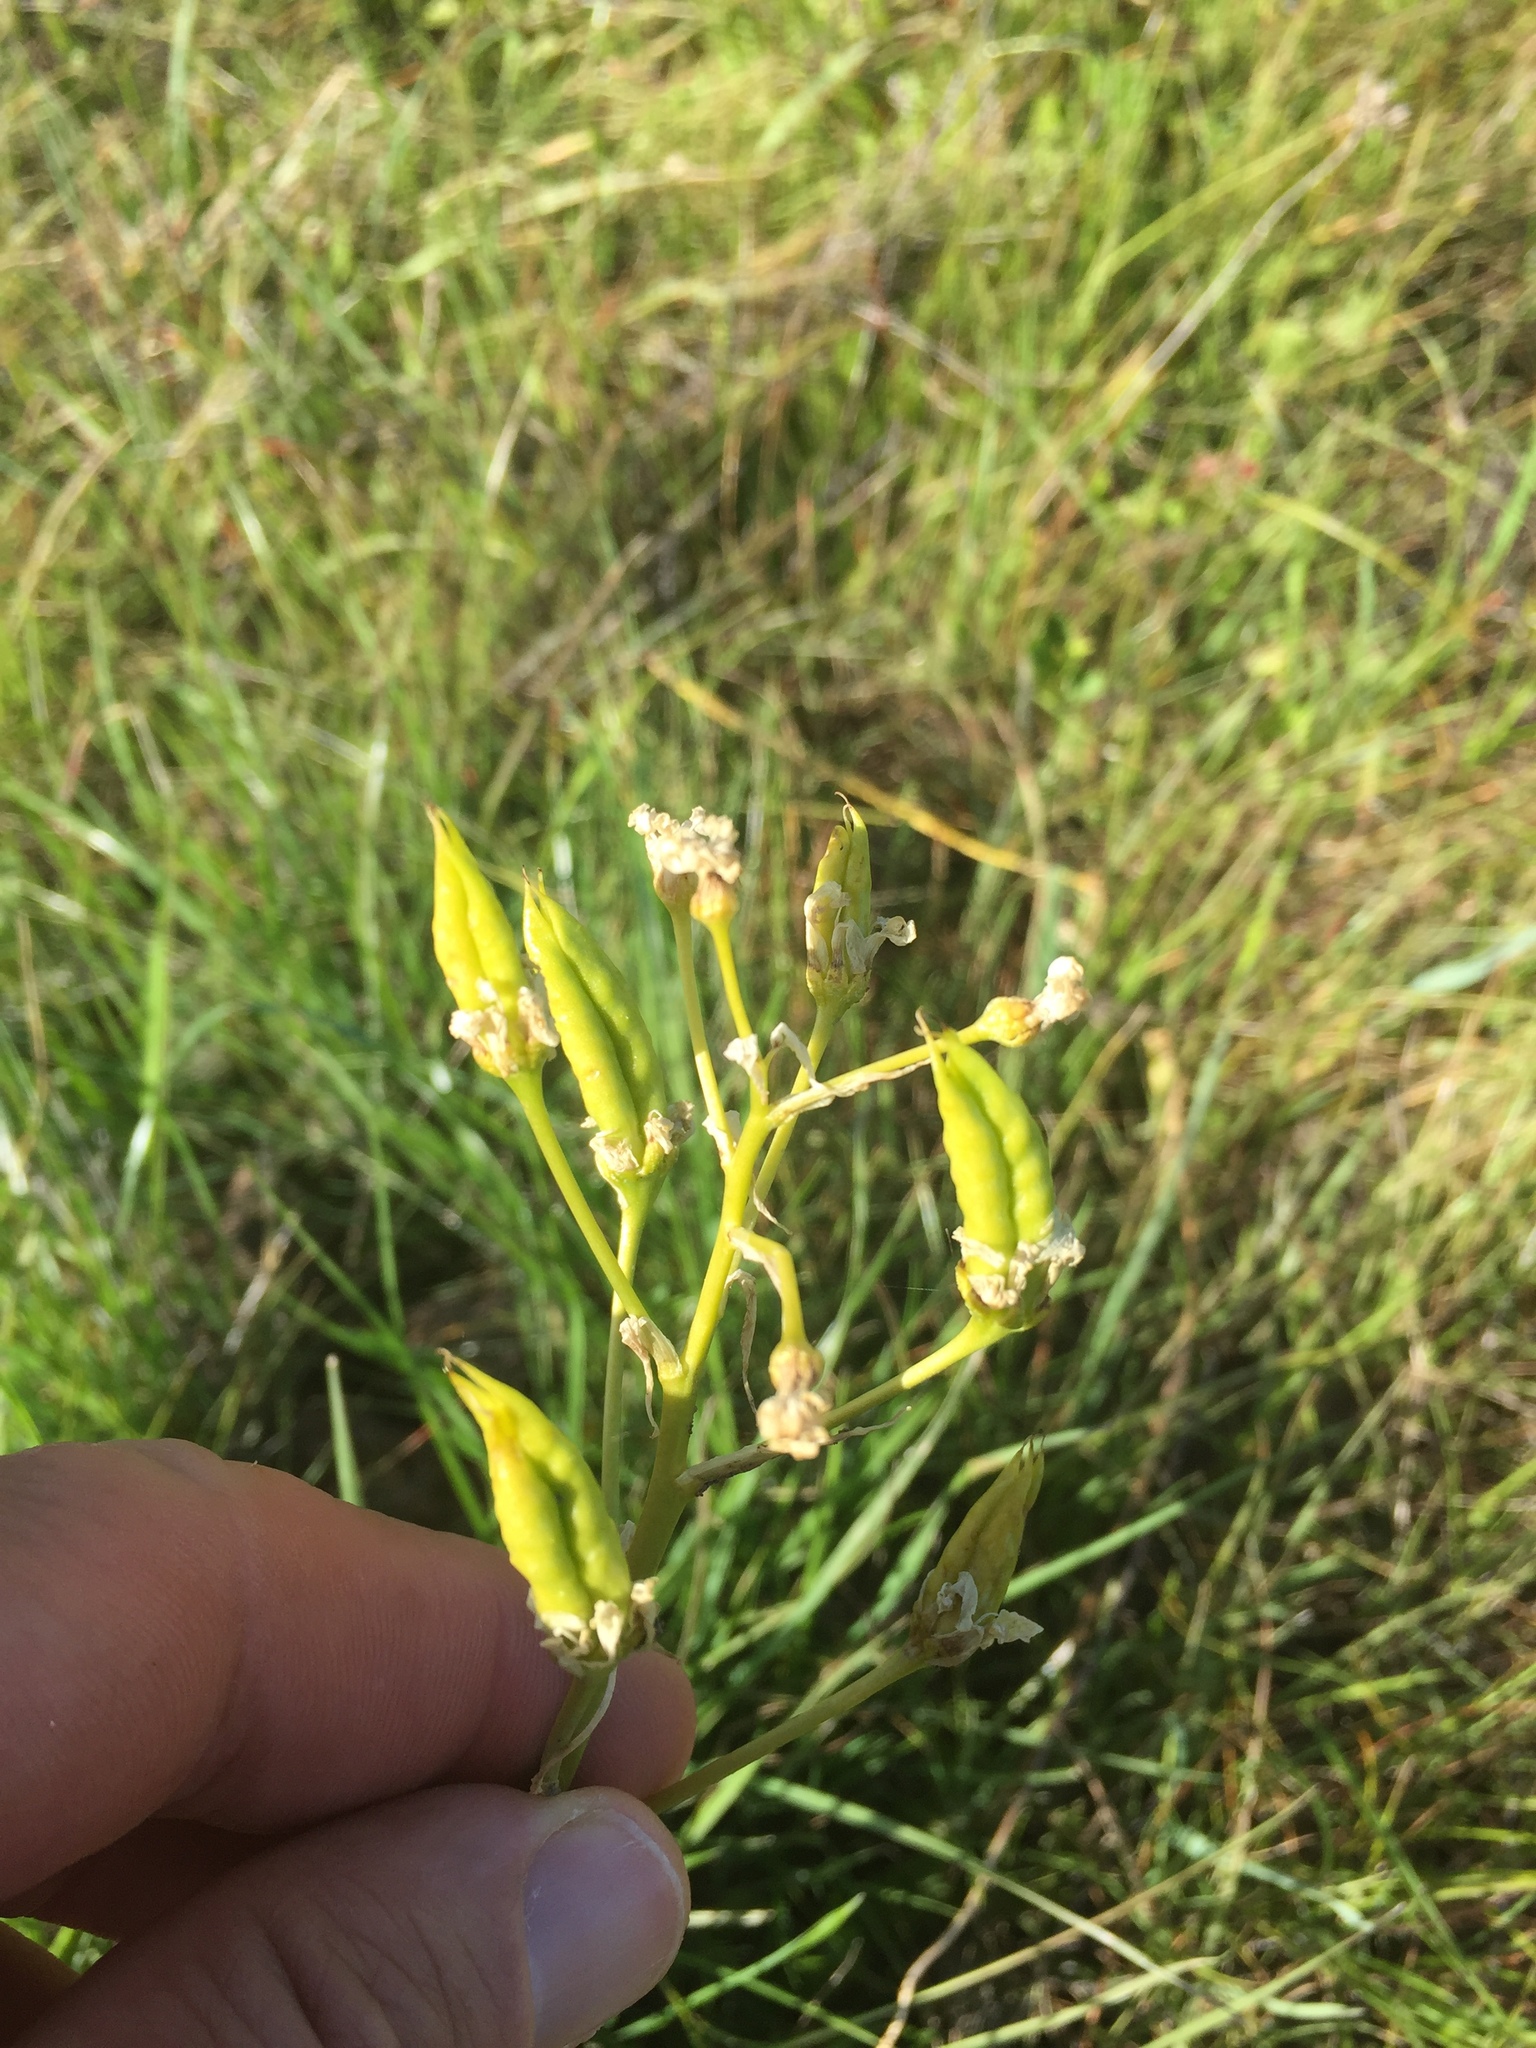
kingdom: Plantae
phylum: Tracheophyta
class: Liliopsida
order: Liliales
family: Melanthiaceae
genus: Toxicoscordion
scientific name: Toxicoscordion fremontii
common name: Fremont's death camas
